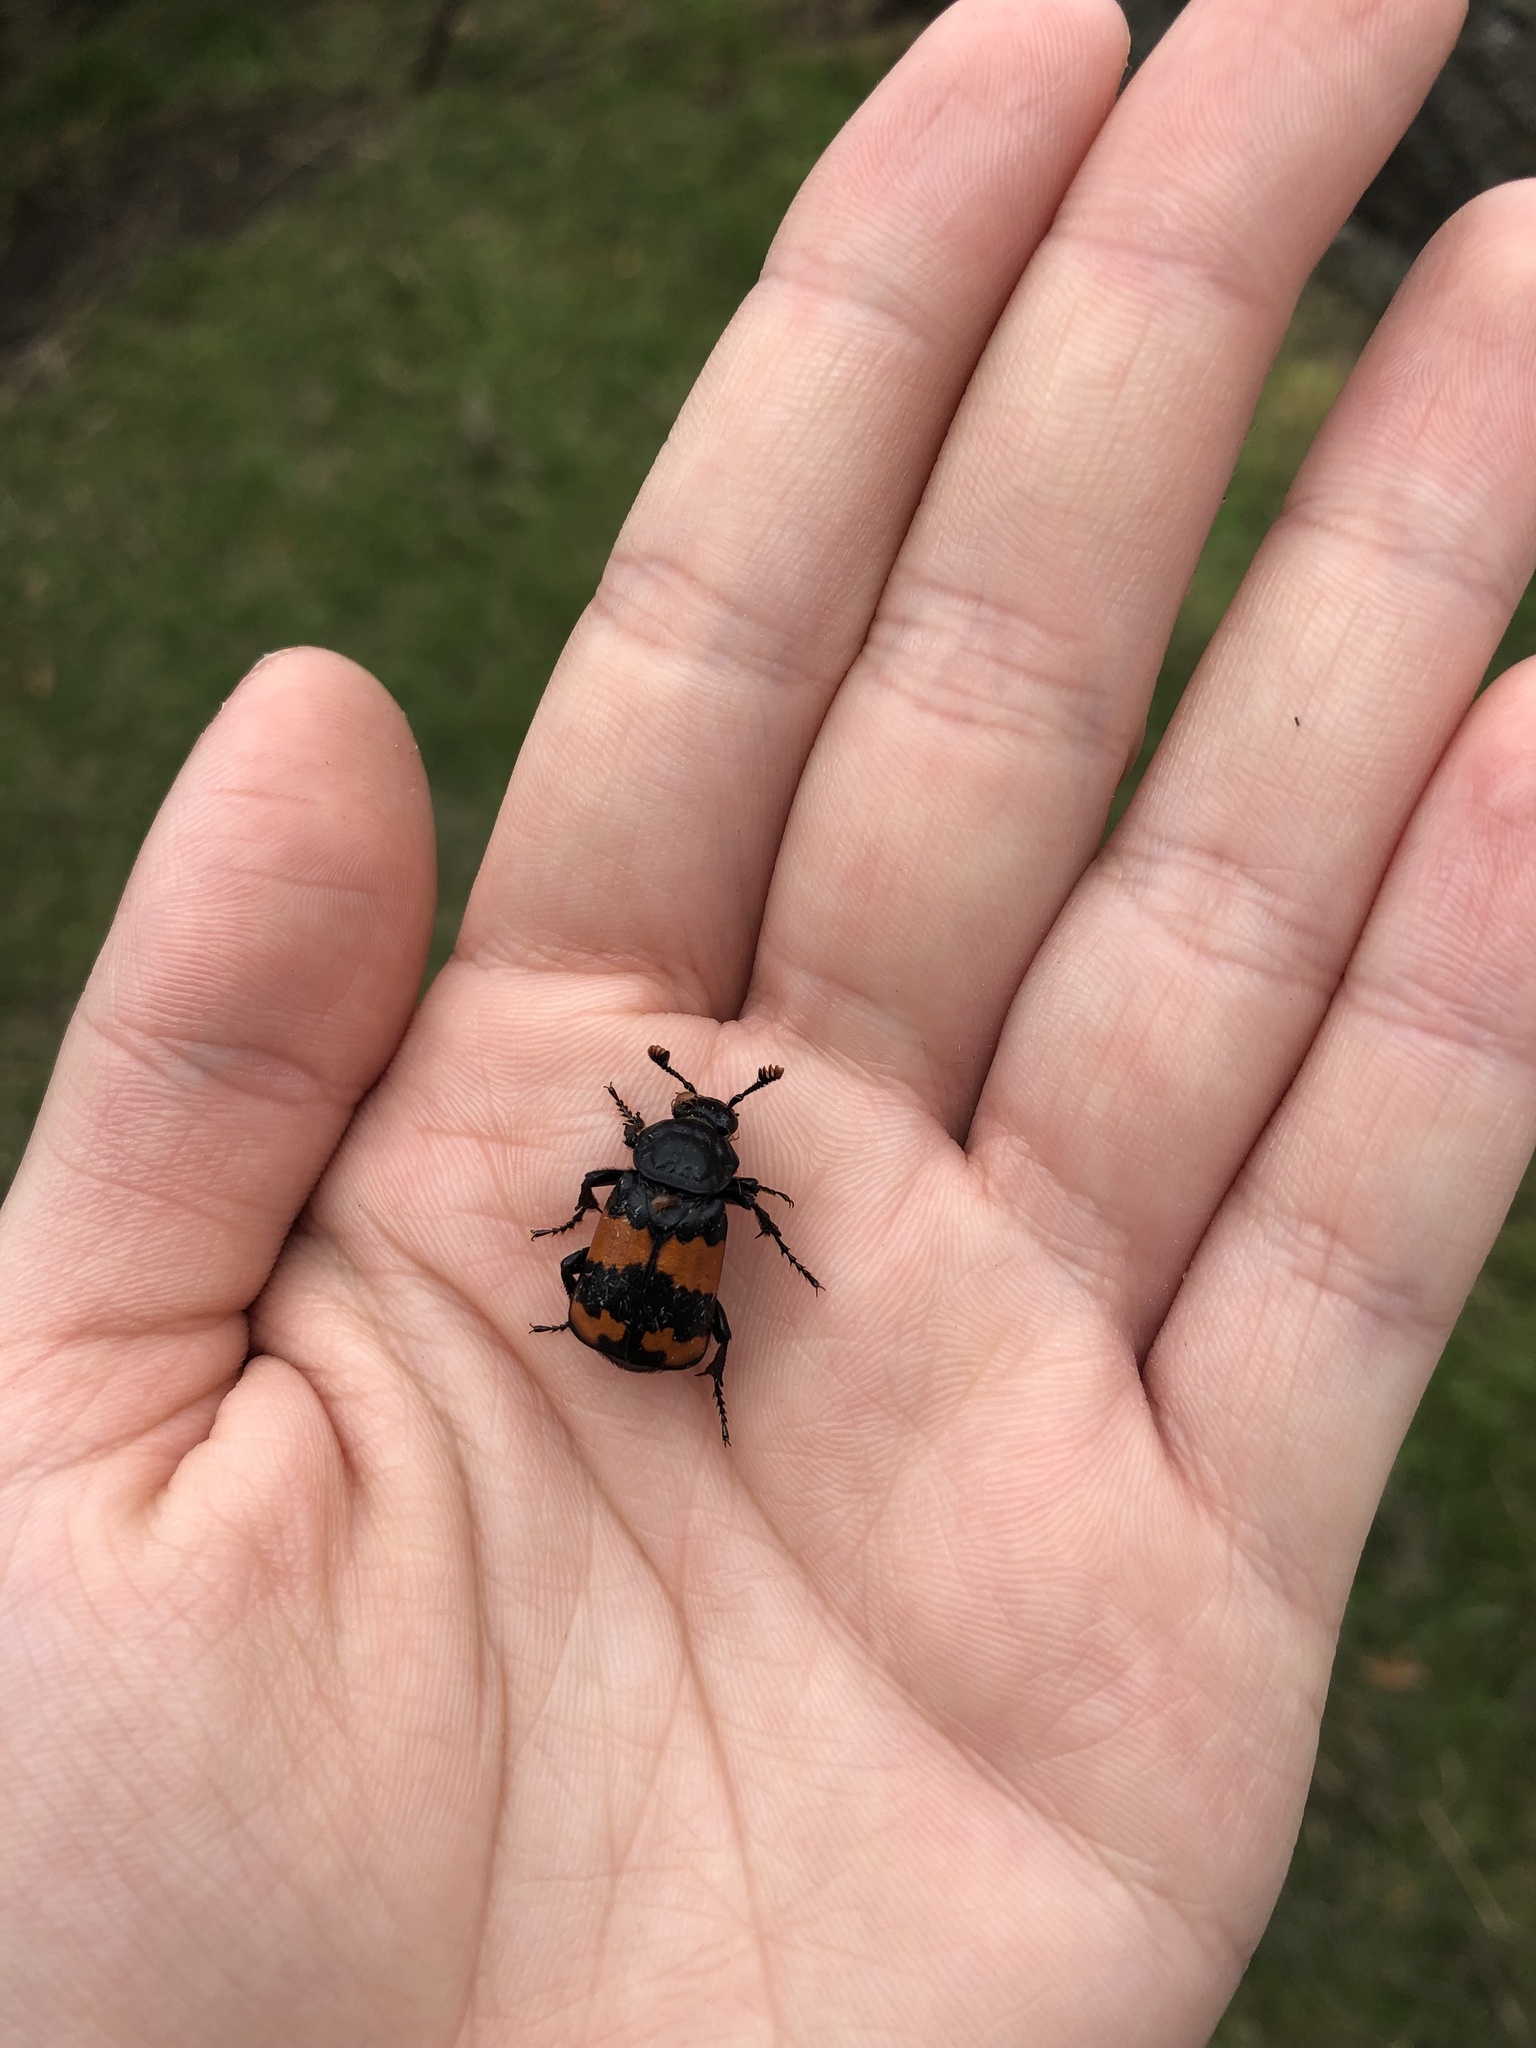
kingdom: Animalia
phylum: Arthropoda
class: Insecta
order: Coleoptera
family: Staphylinidae
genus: Nicrophorus
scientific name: Nicrophorus investigator
